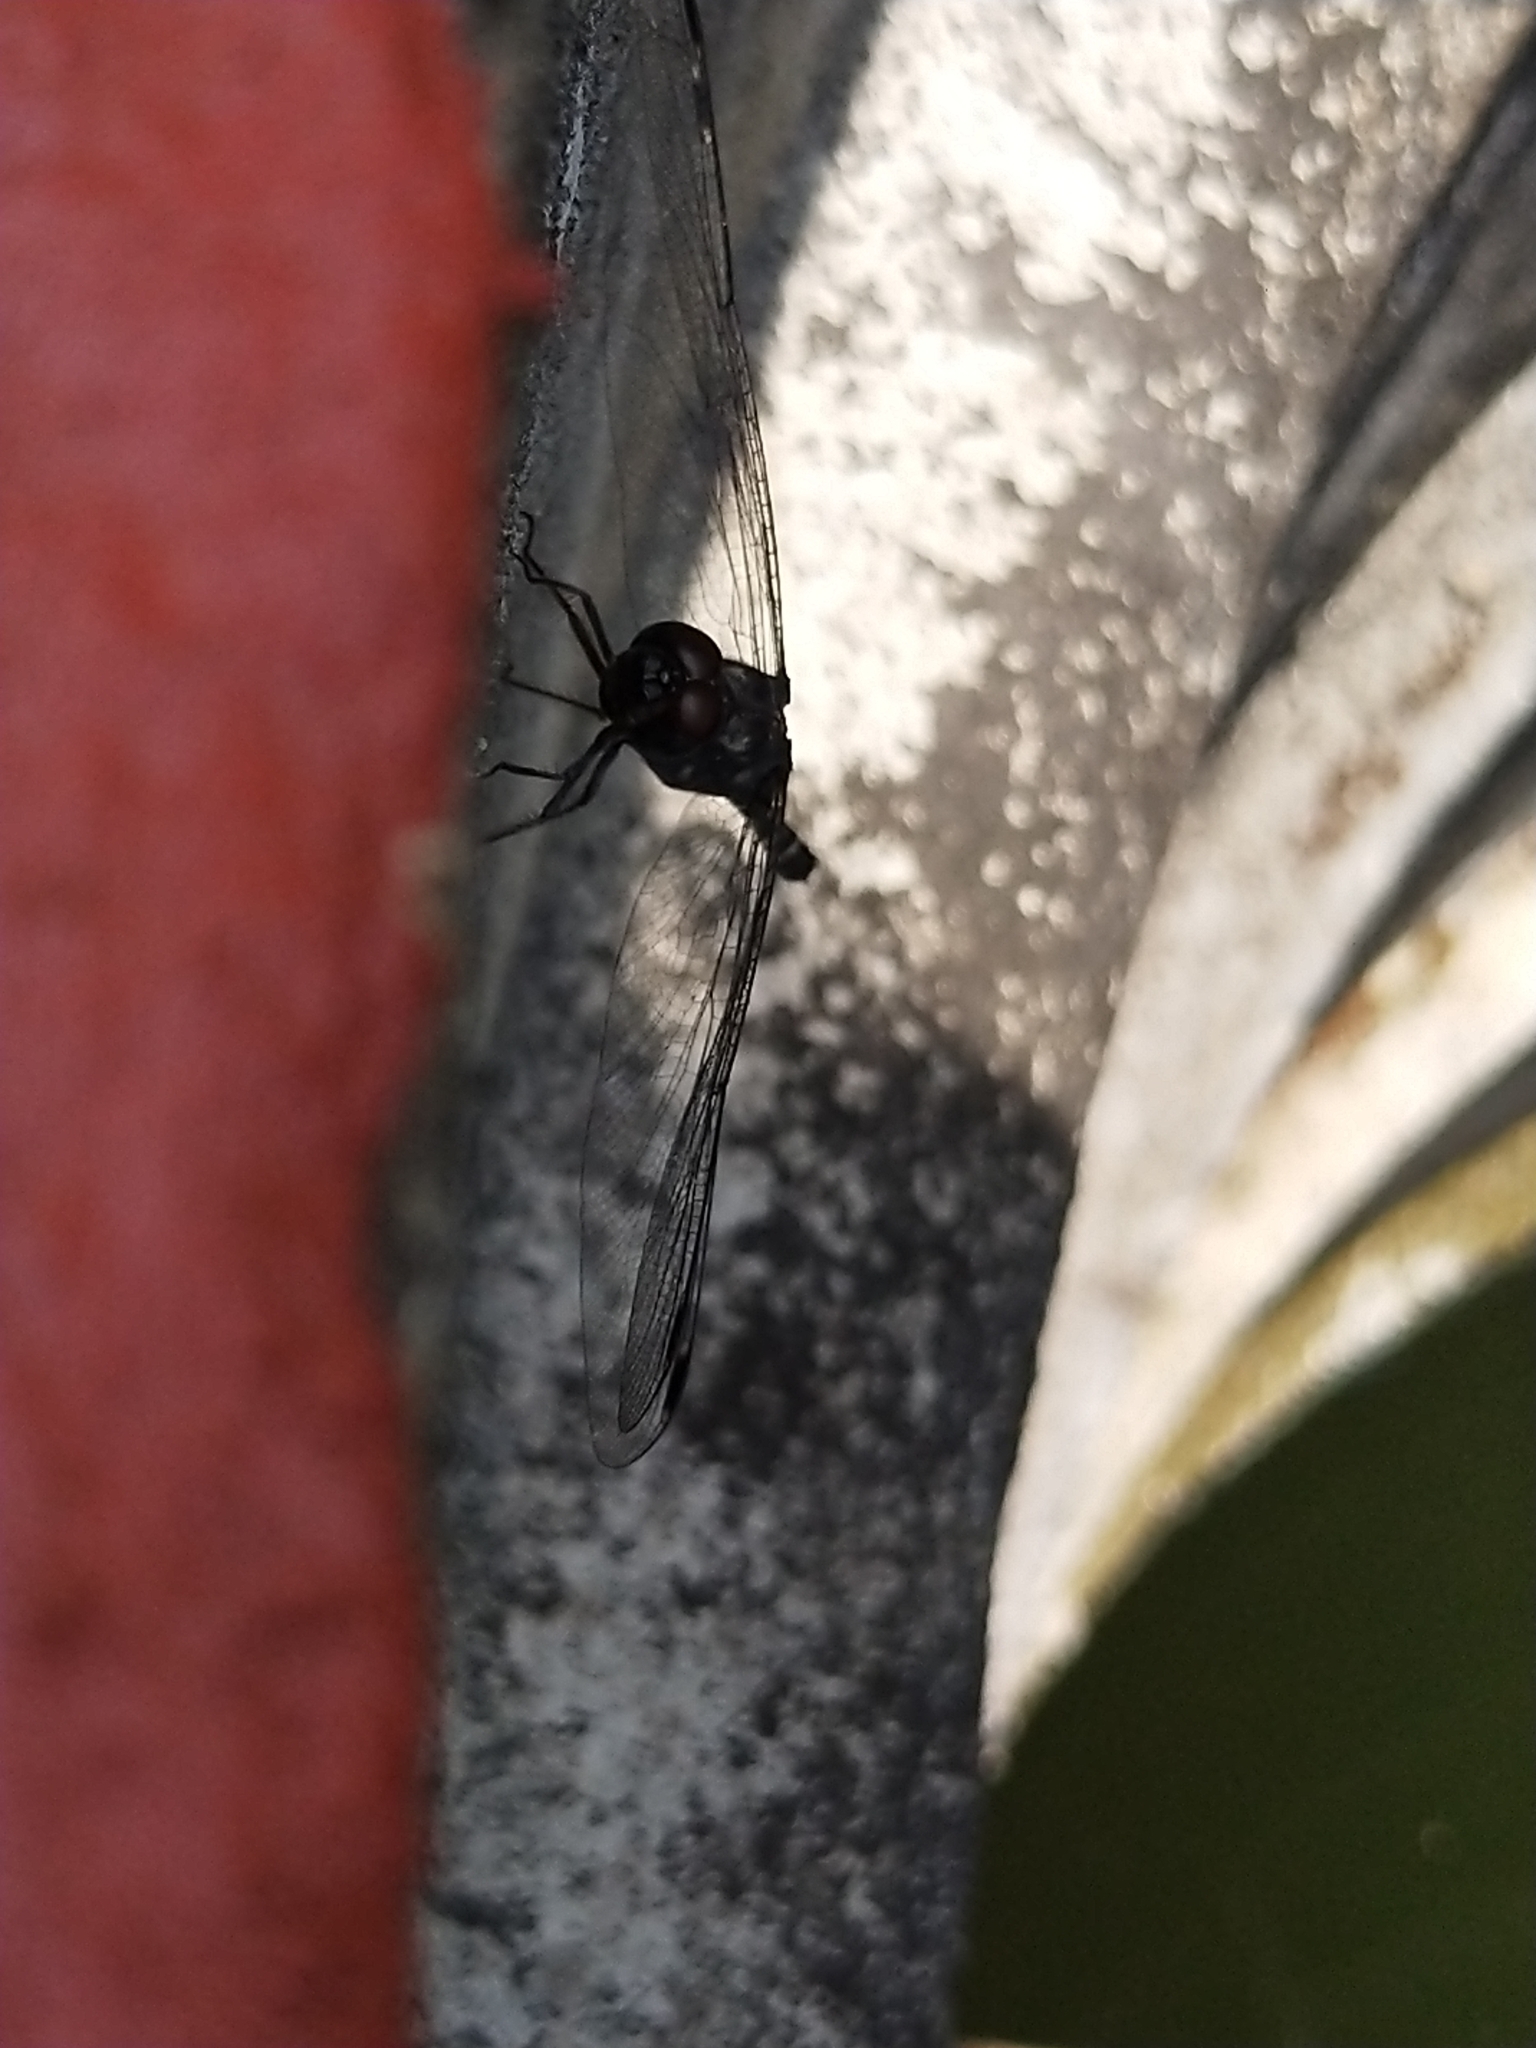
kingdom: Animalia
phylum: Arthropoda
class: Insecta
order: Odonata
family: Libellulidae
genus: Bradinopyga
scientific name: Bradinopyga geminata
